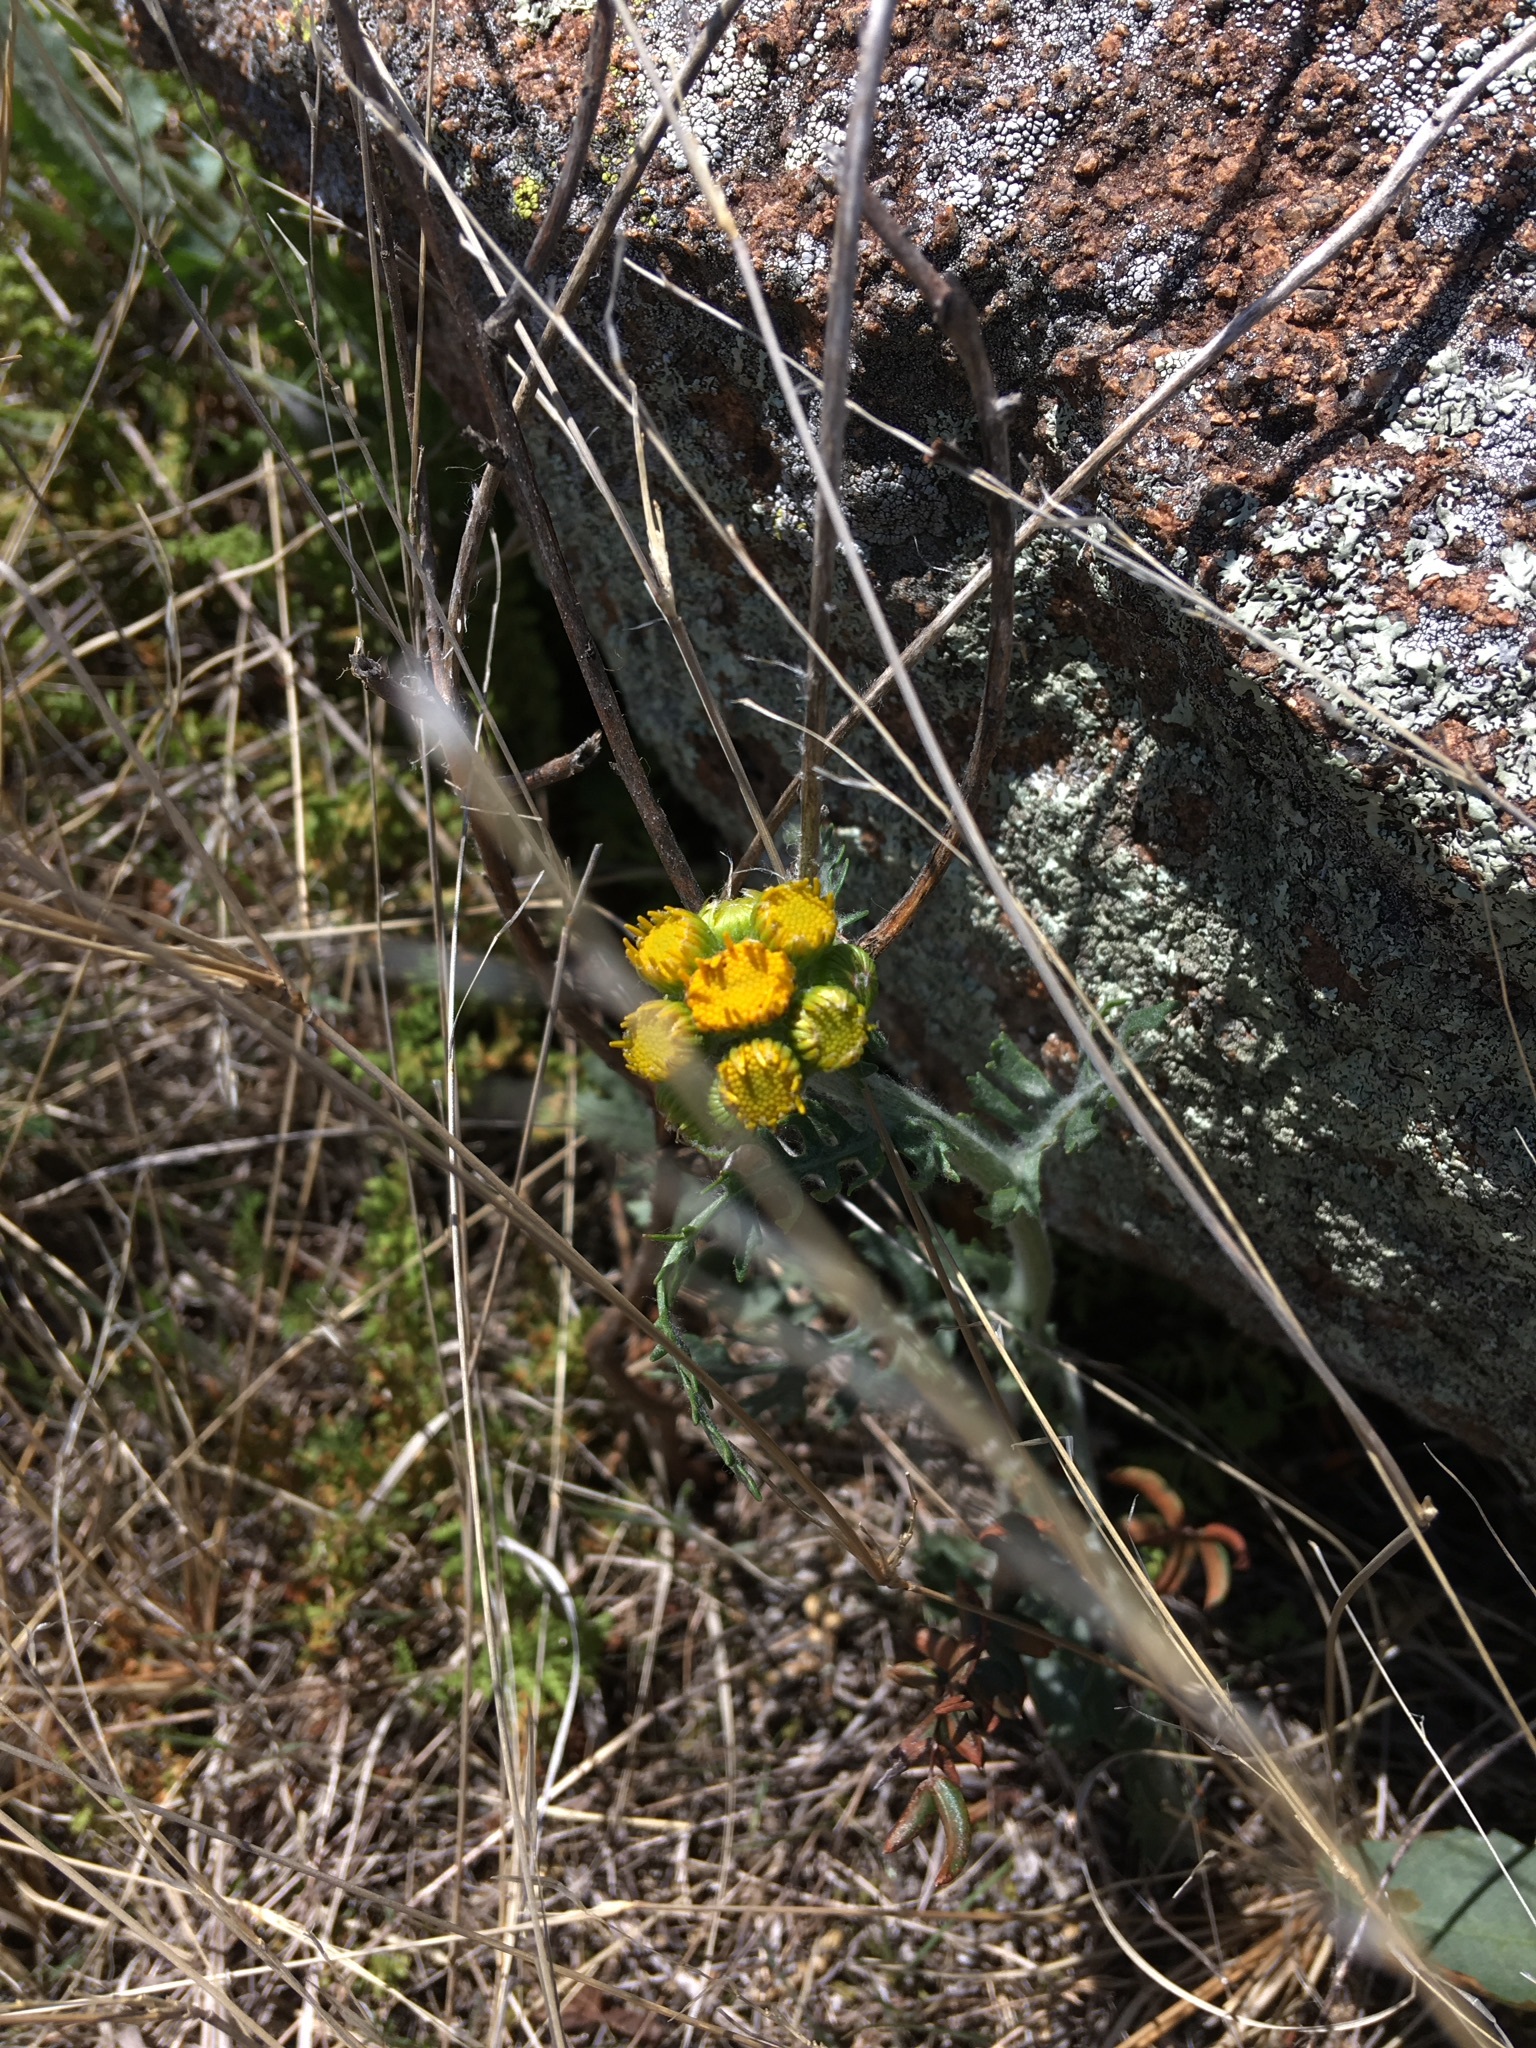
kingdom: Plantae
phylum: Tracheophyta
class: Magnoliopsida
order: Asterales
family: Asteraceae
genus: Packera
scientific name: Packera plattensis
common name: Prairie groundsel
